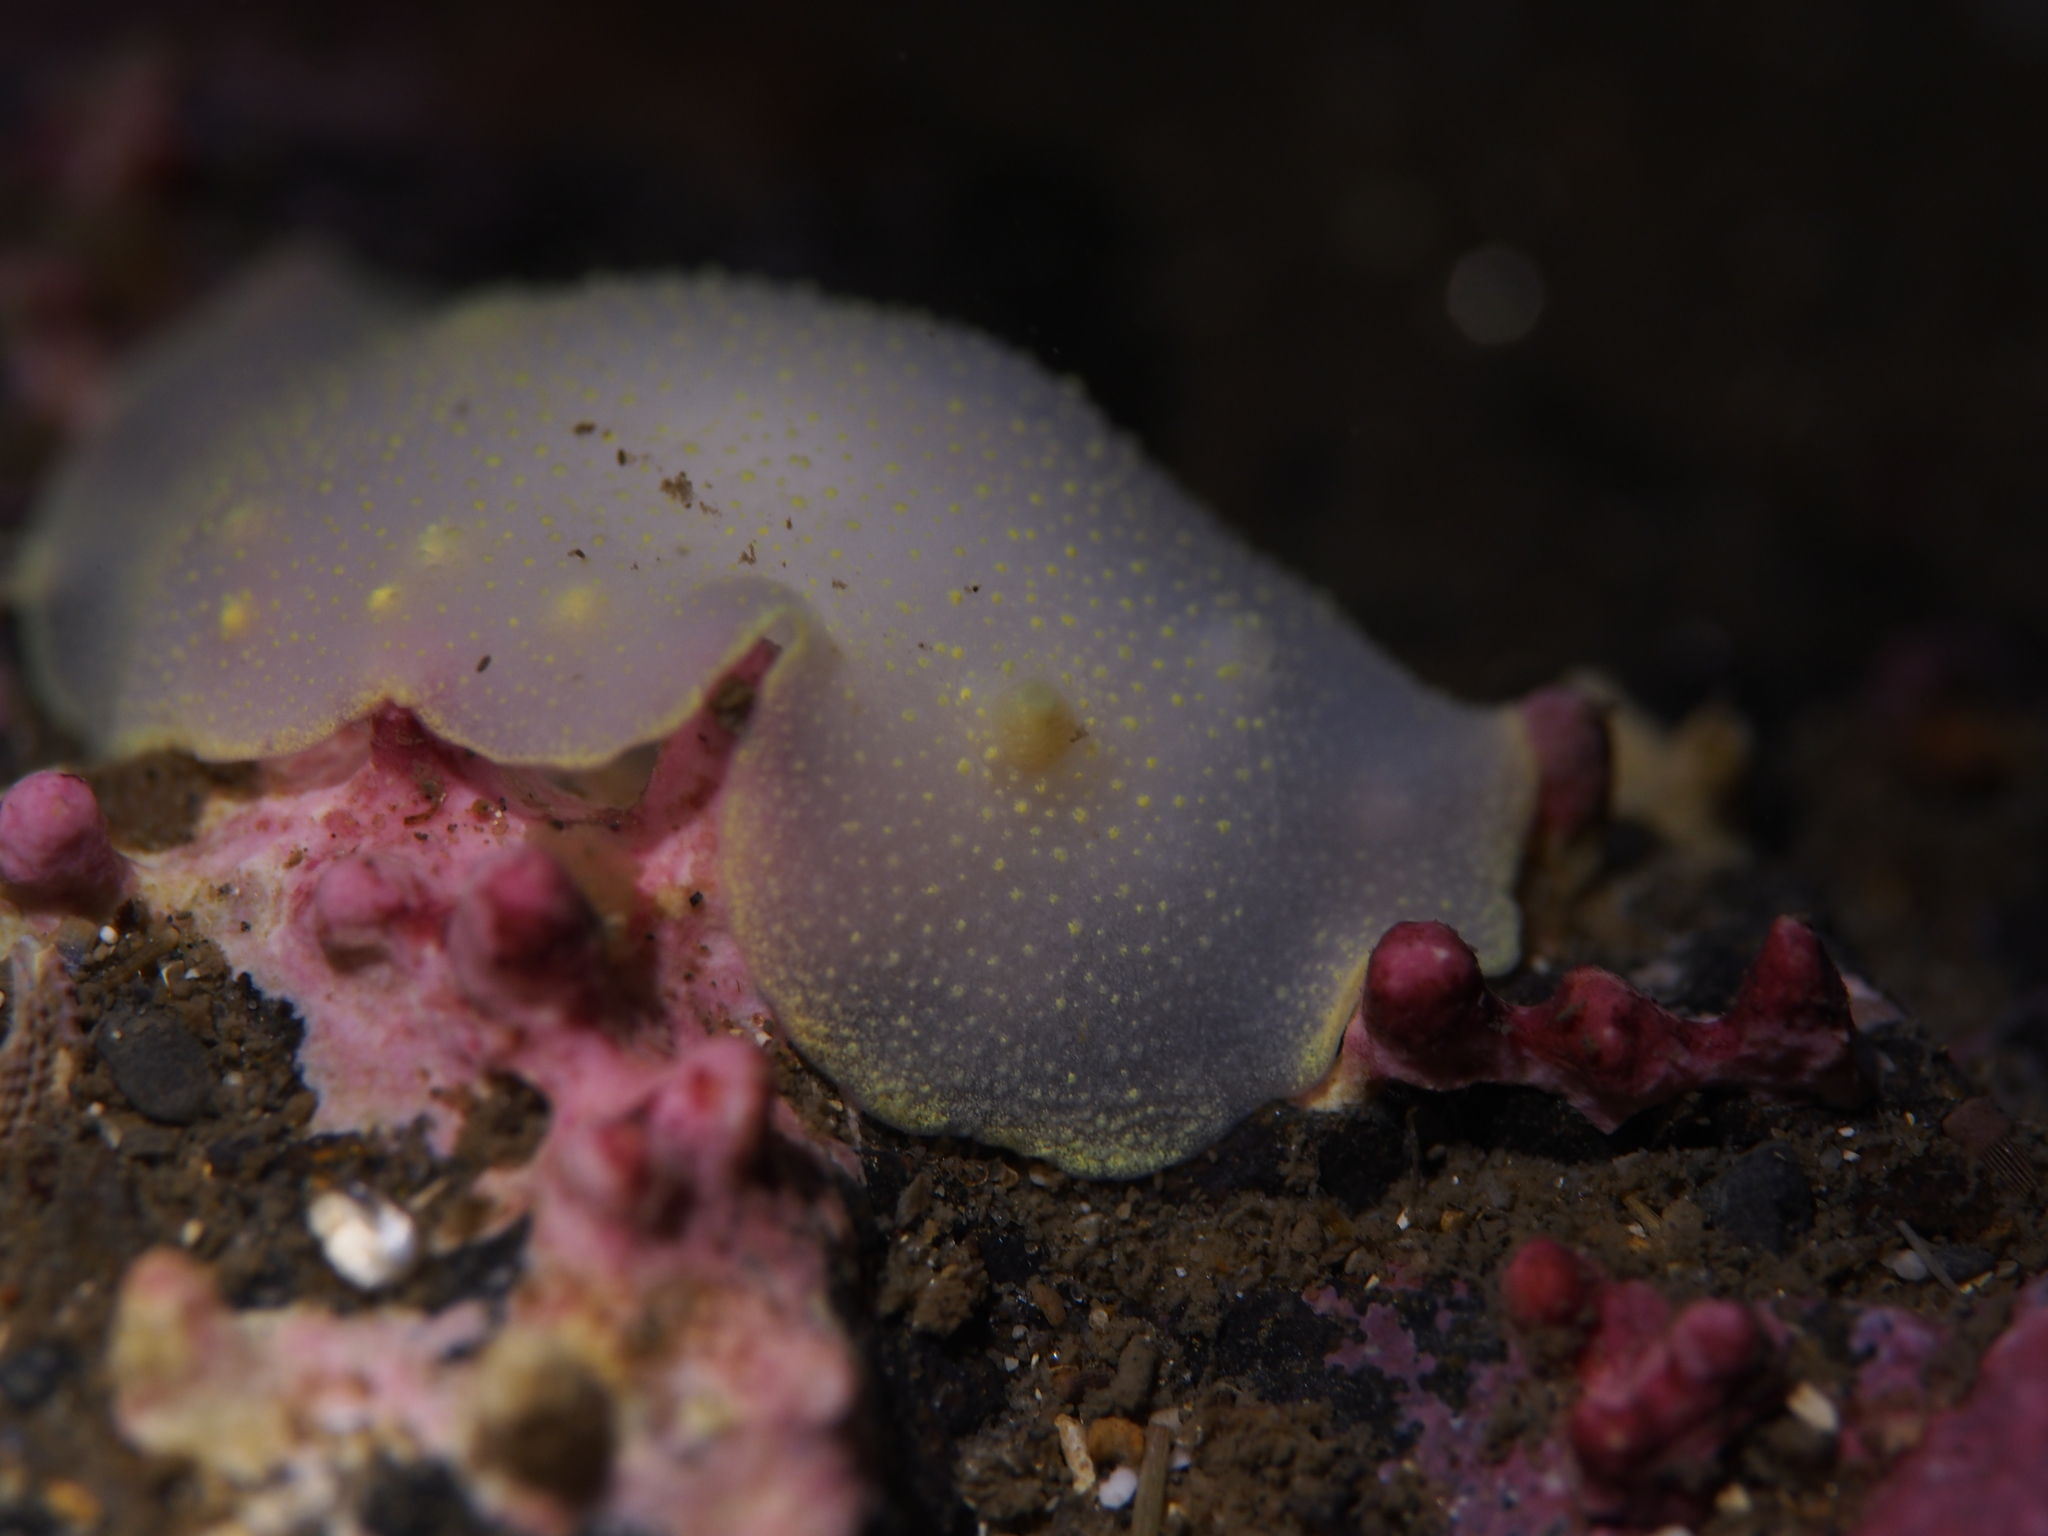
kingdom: Animalia
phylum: Mollusca
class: Gastropoda
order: Nudibranchia
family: Cadlinidae
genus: Cadlina
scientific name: Cadlina laevis
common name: White atlantic cadlina
